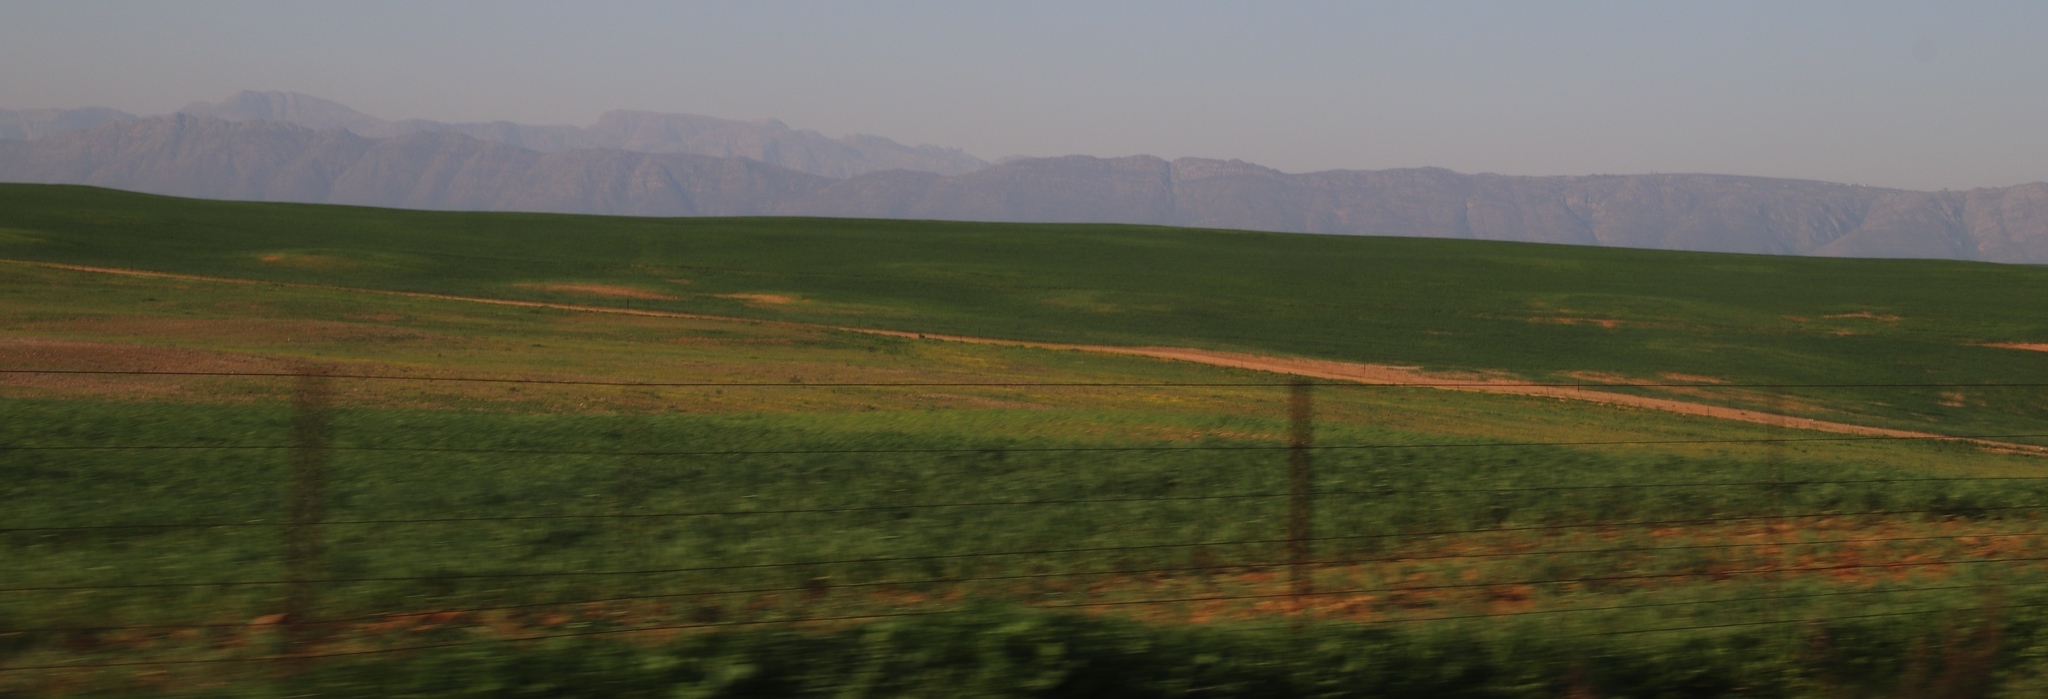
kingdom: Animalia
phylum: Arthropoda
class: Insecta
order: Blattodea
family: Hodotermitidae
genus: Microhodotermes
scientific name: Microhodotermes viator
